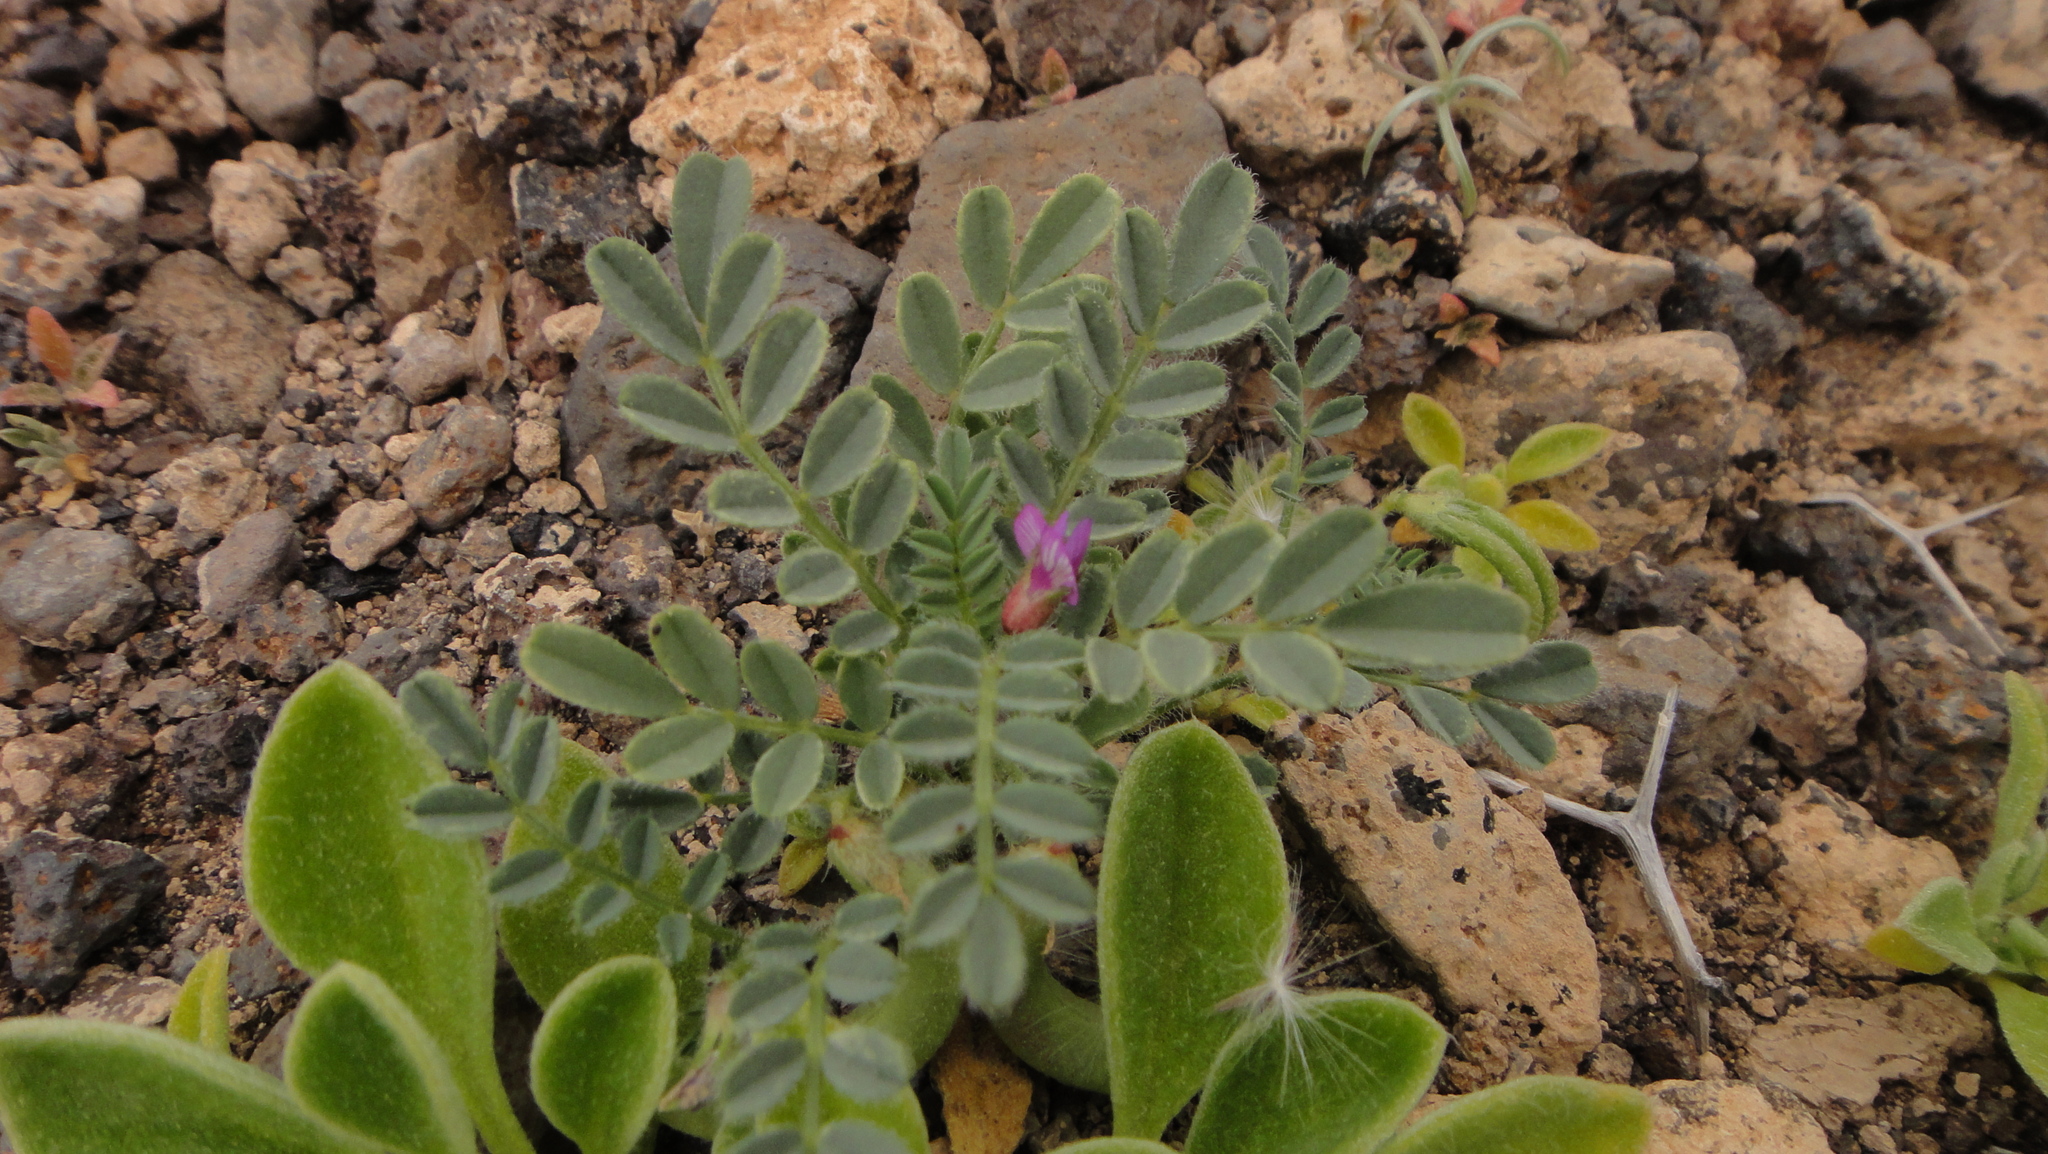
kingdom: Plantae
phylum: Tracheophyta
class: Magnoliopsida
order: Fabales
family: Fabaceae
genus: Astragalus
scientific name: Astragalus mareoticus
